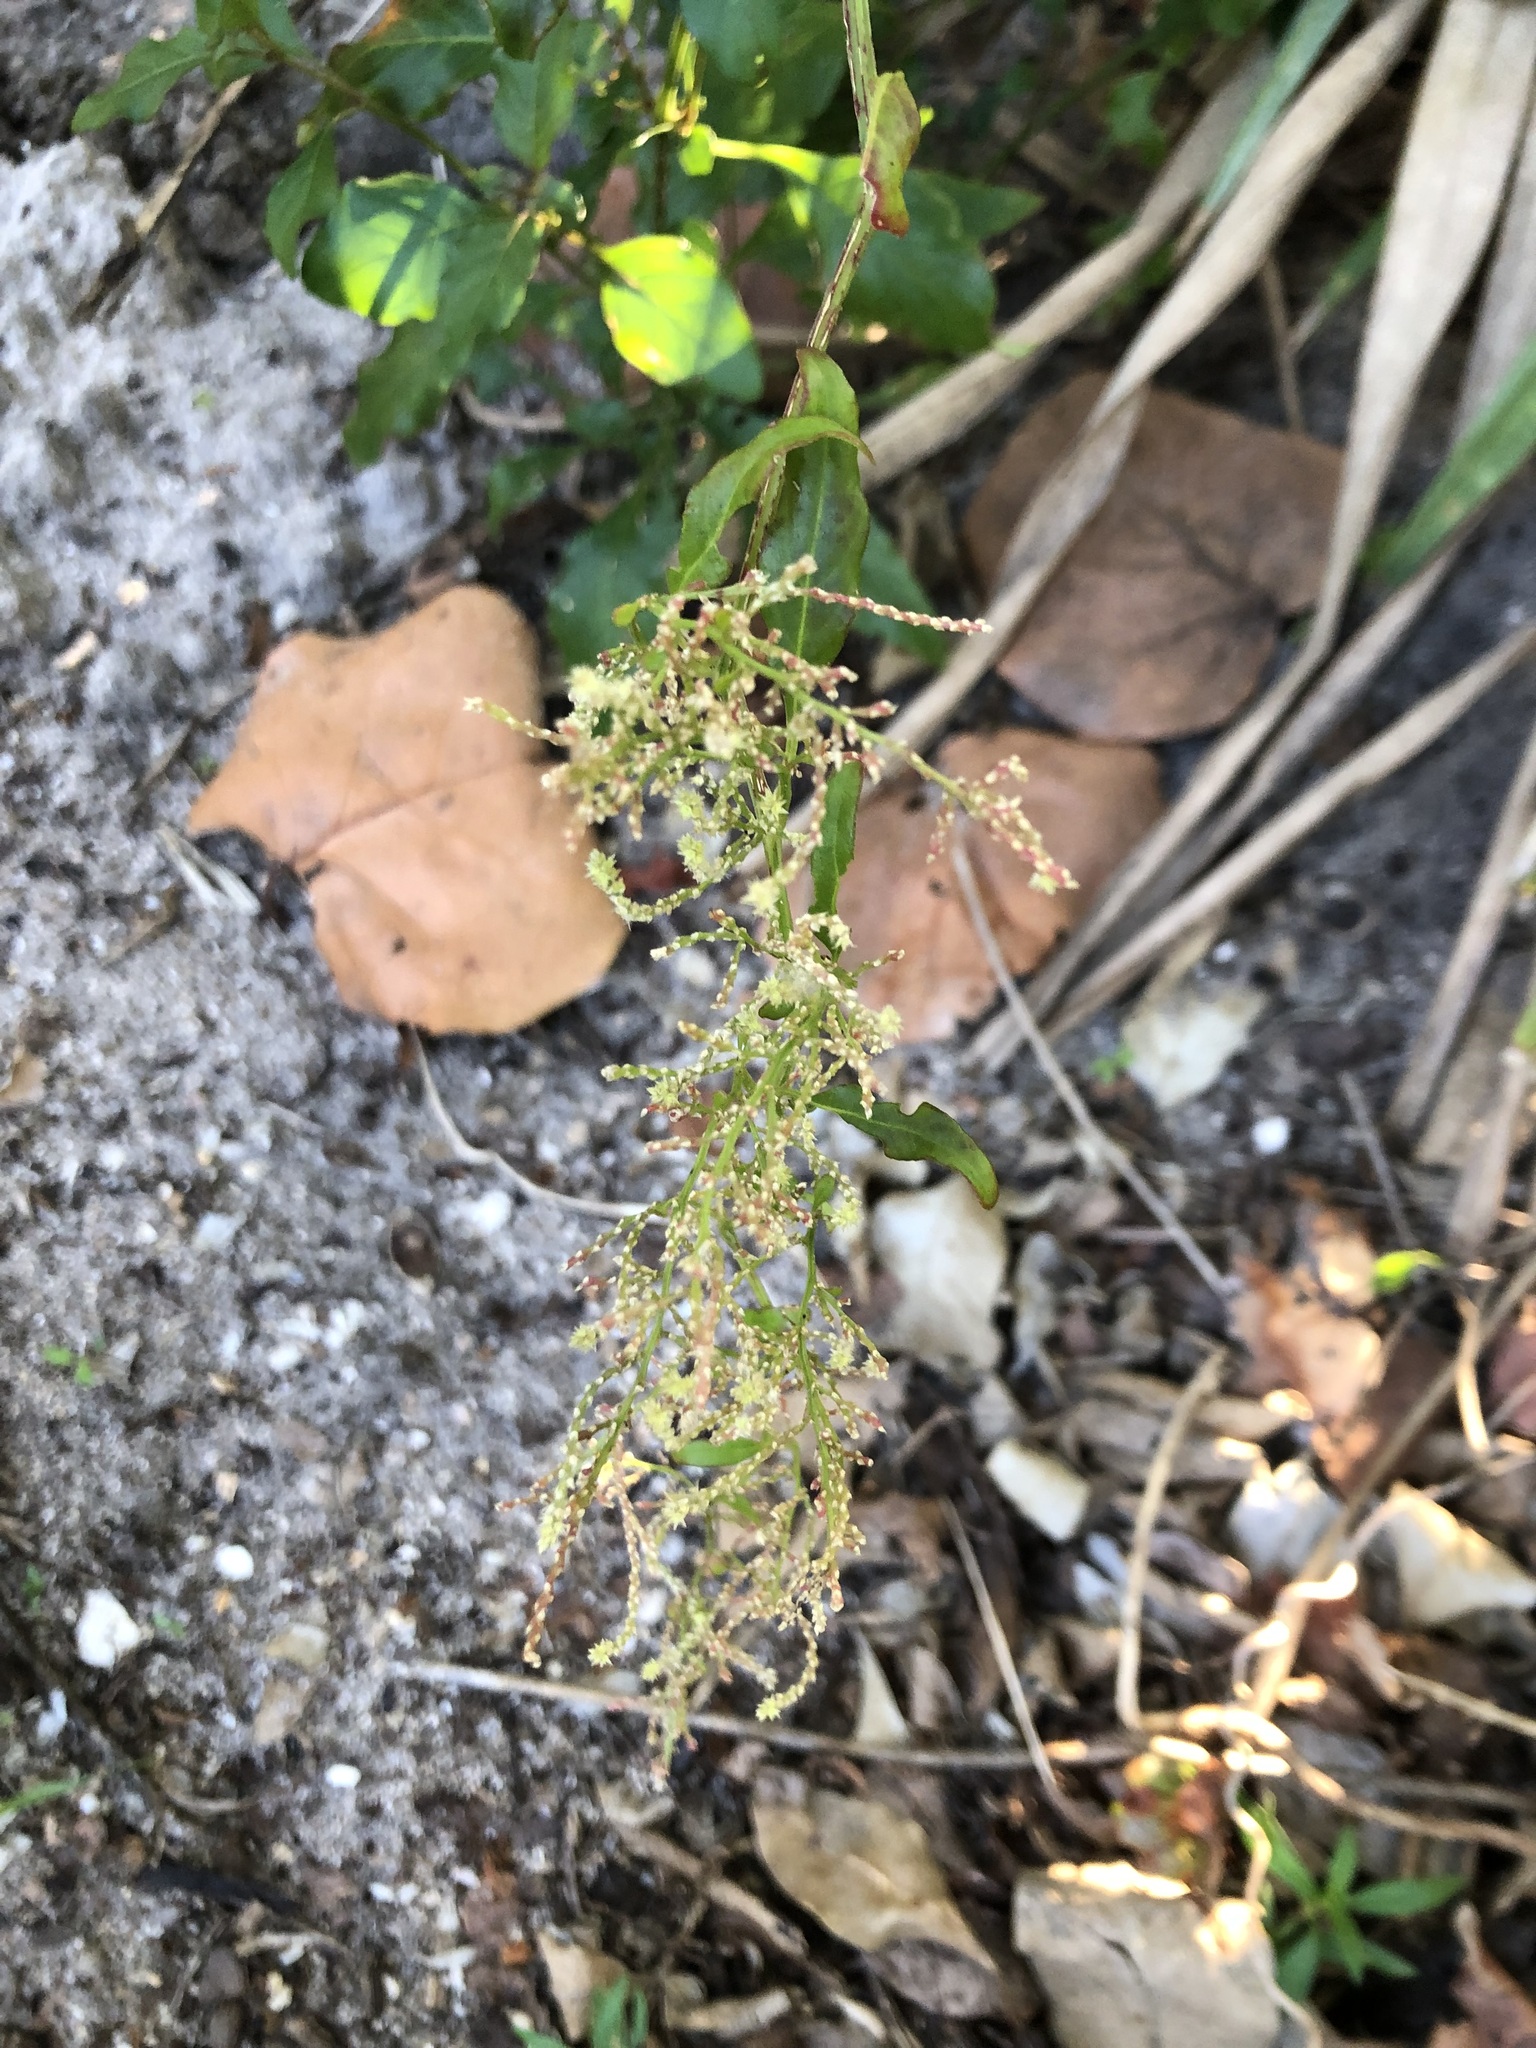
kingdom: Plantae
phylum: Tracheophyta
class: Magnoliopsida
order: Caryophyllales
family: Amaranthaceae
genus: Iresine
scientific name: Iresine diffusa
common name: Juba's-bush
